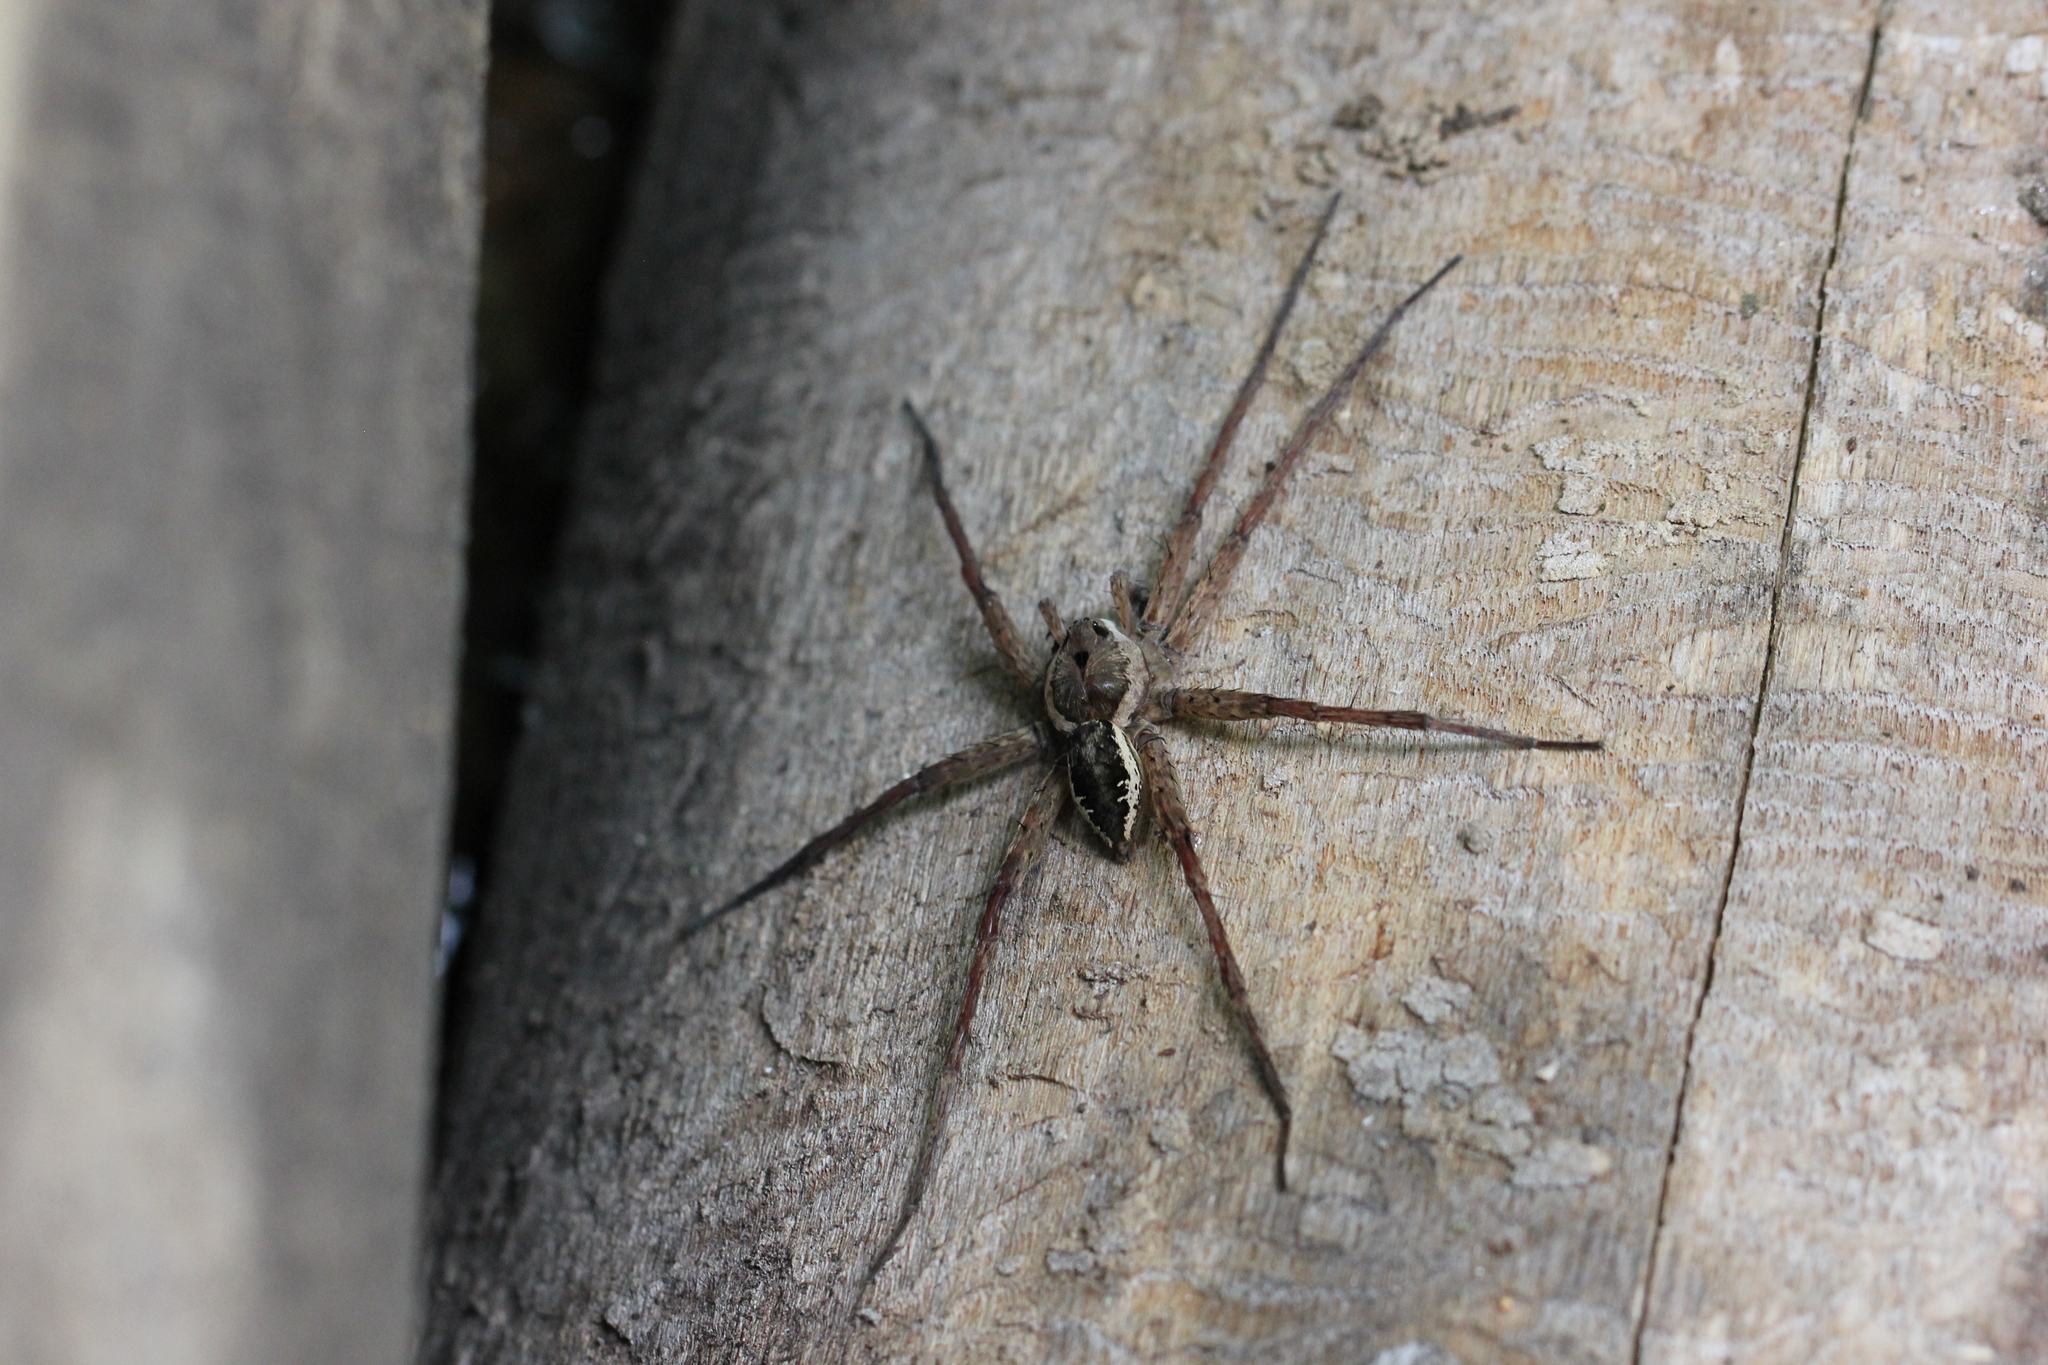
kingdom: Animalia
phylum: Arthropoda
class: Arachnida
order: Araneae
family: Pisauridae
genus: Dolomedes
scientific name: Dolomedes vittatus
